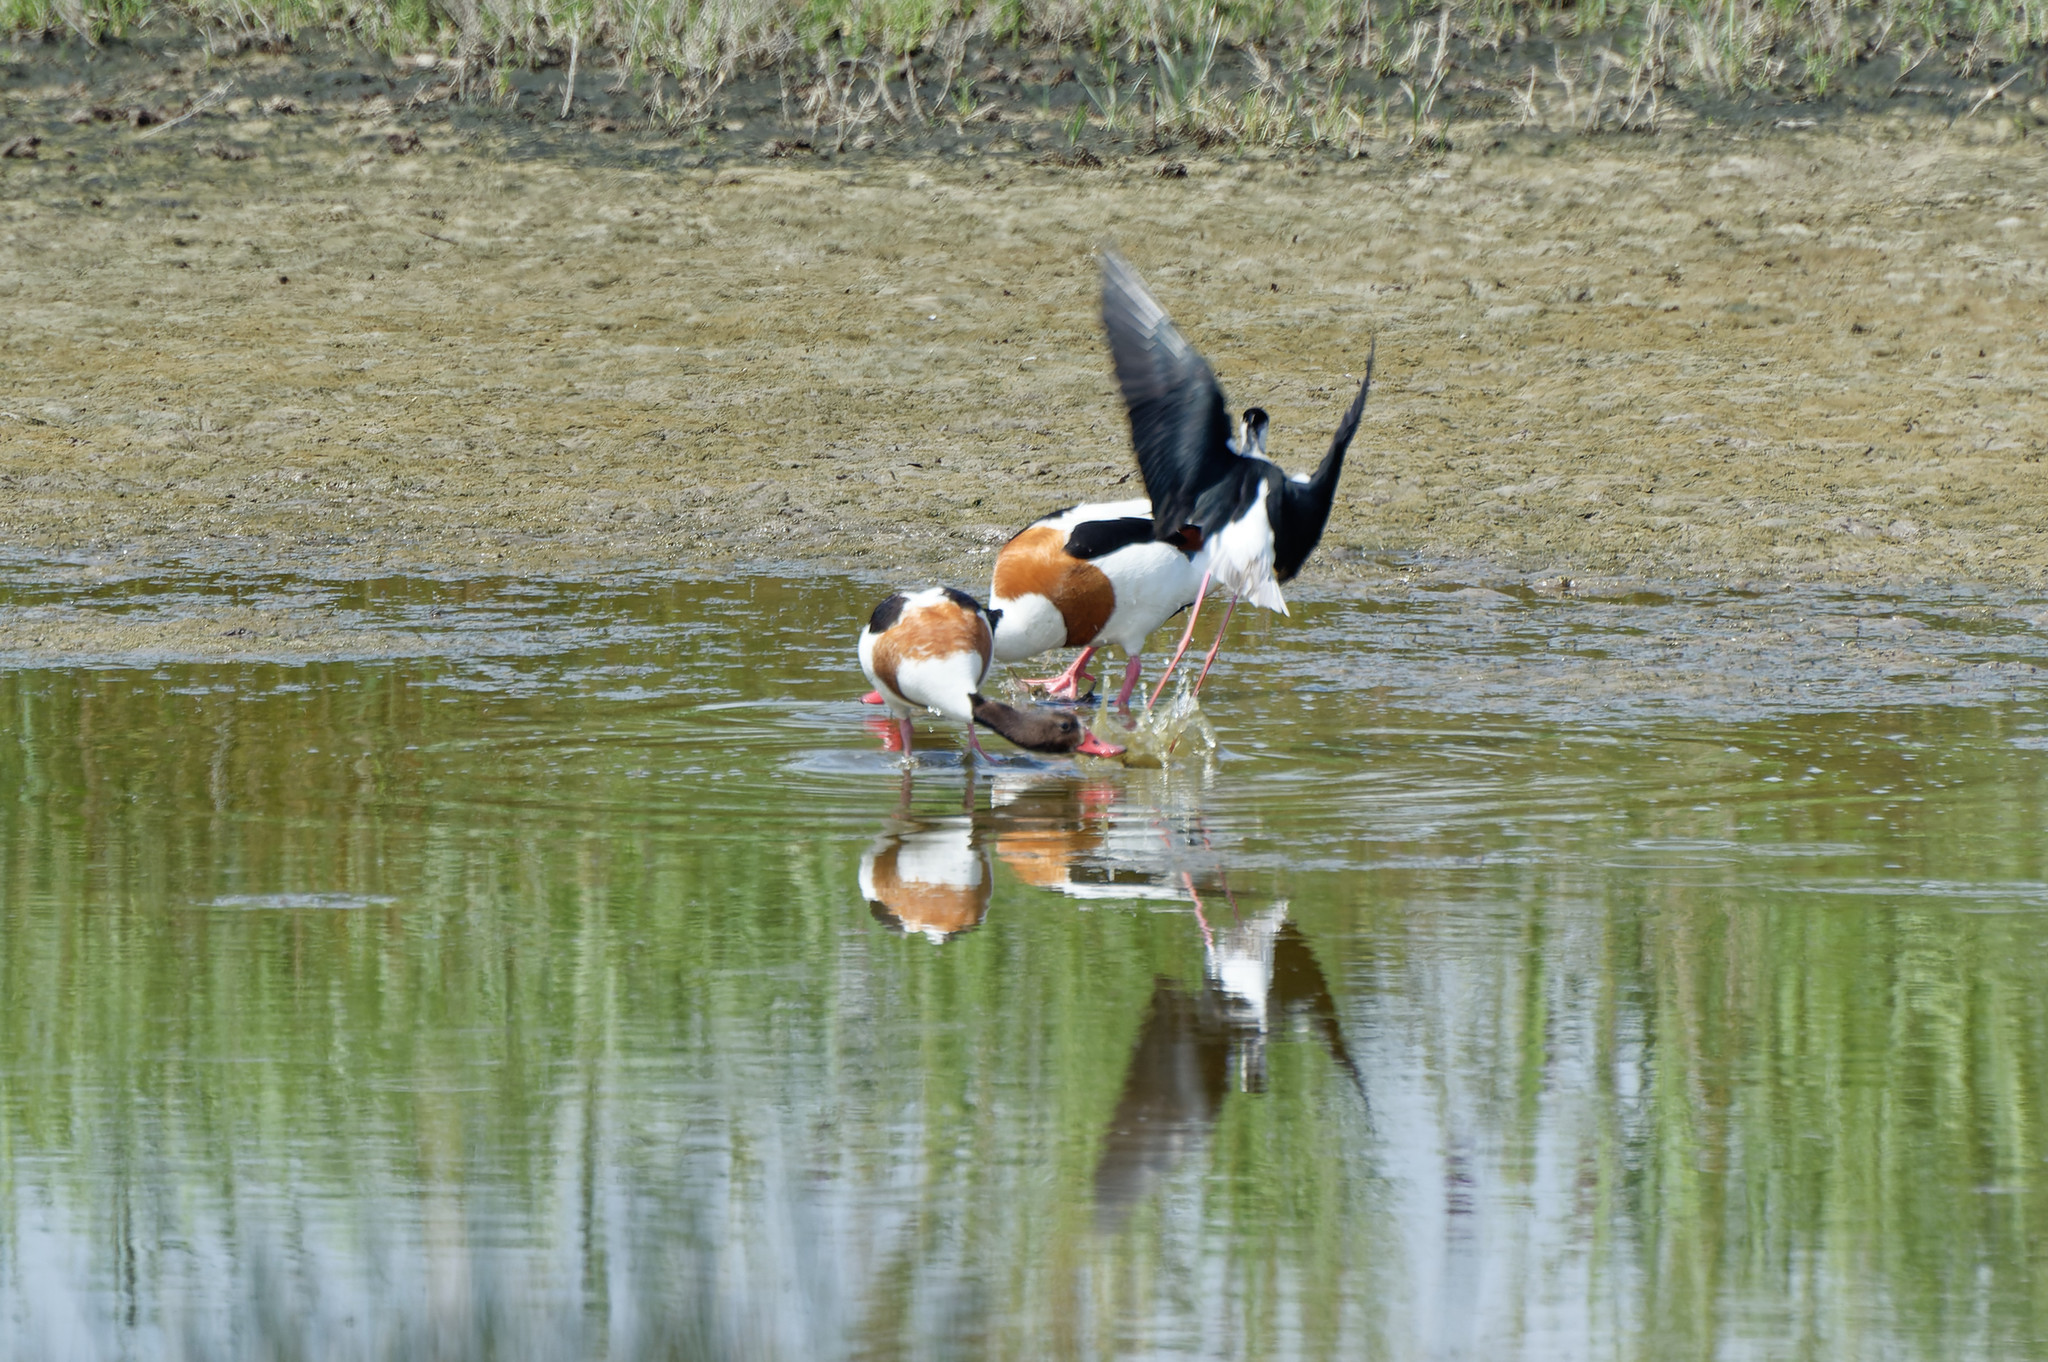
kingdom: Animalia
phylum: Chordata
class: Aves
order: Anseriformes
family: Anatidae
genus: Tadorna
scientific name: Tadorna tadorna
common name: Common shelduck
